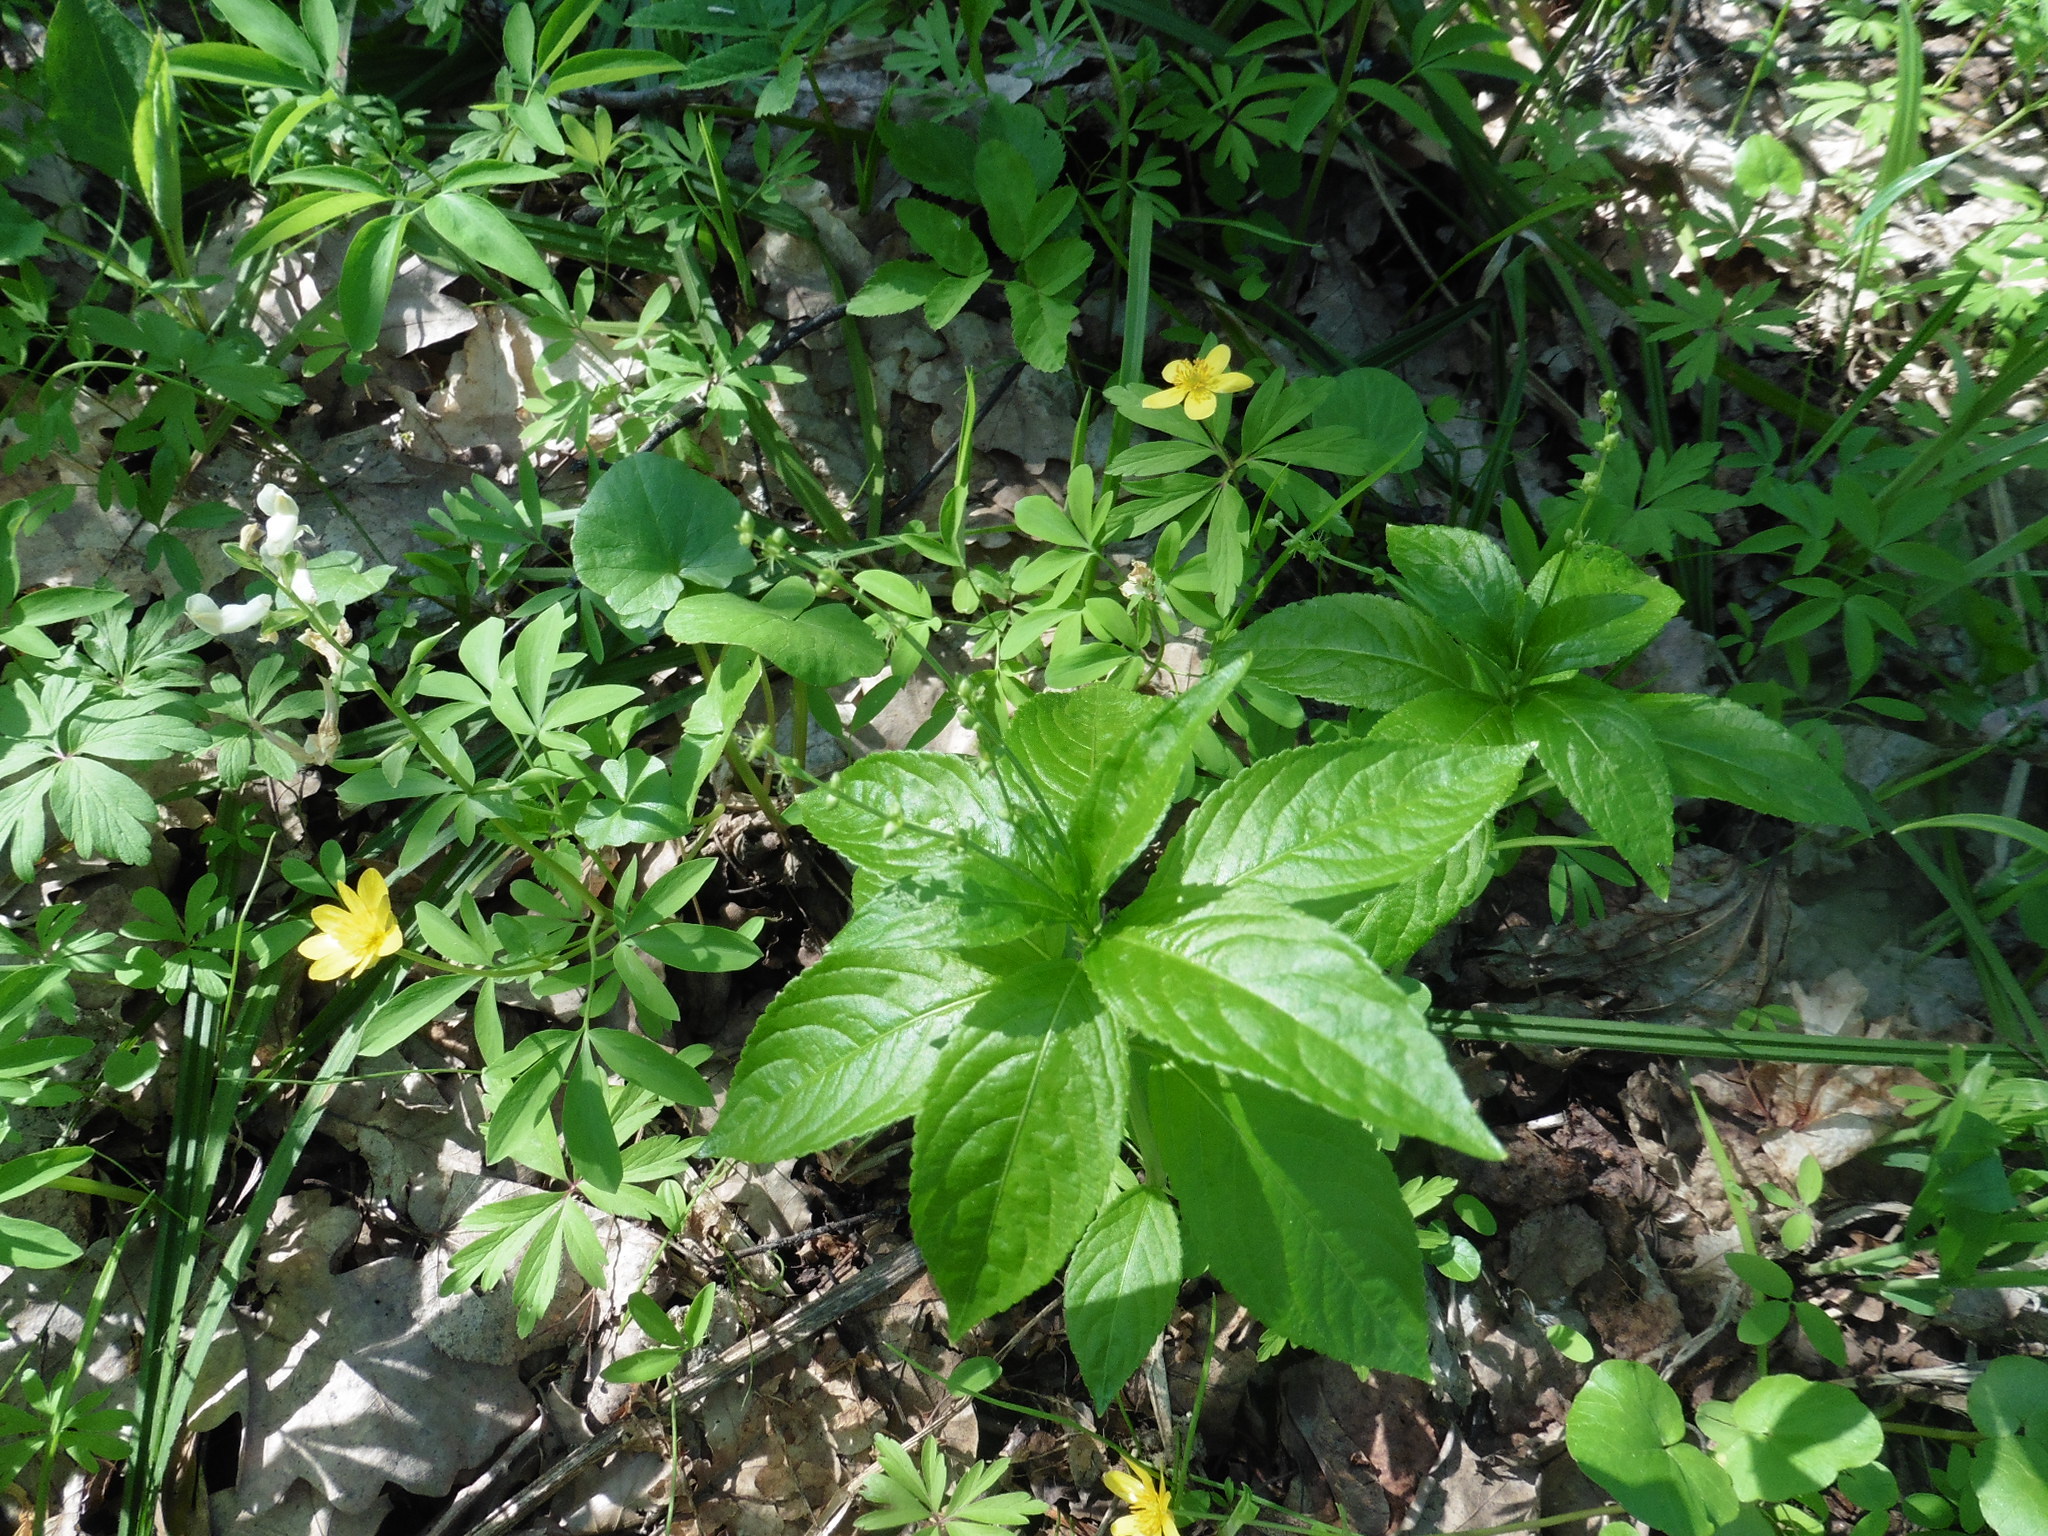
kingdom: Plantae
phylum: Tracheophyta
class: Magnoliopsida
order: Malpighiales
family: Euphorbiaceae
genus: Mercurialis
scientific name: Mercurialis perennis
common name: Dog mercury
